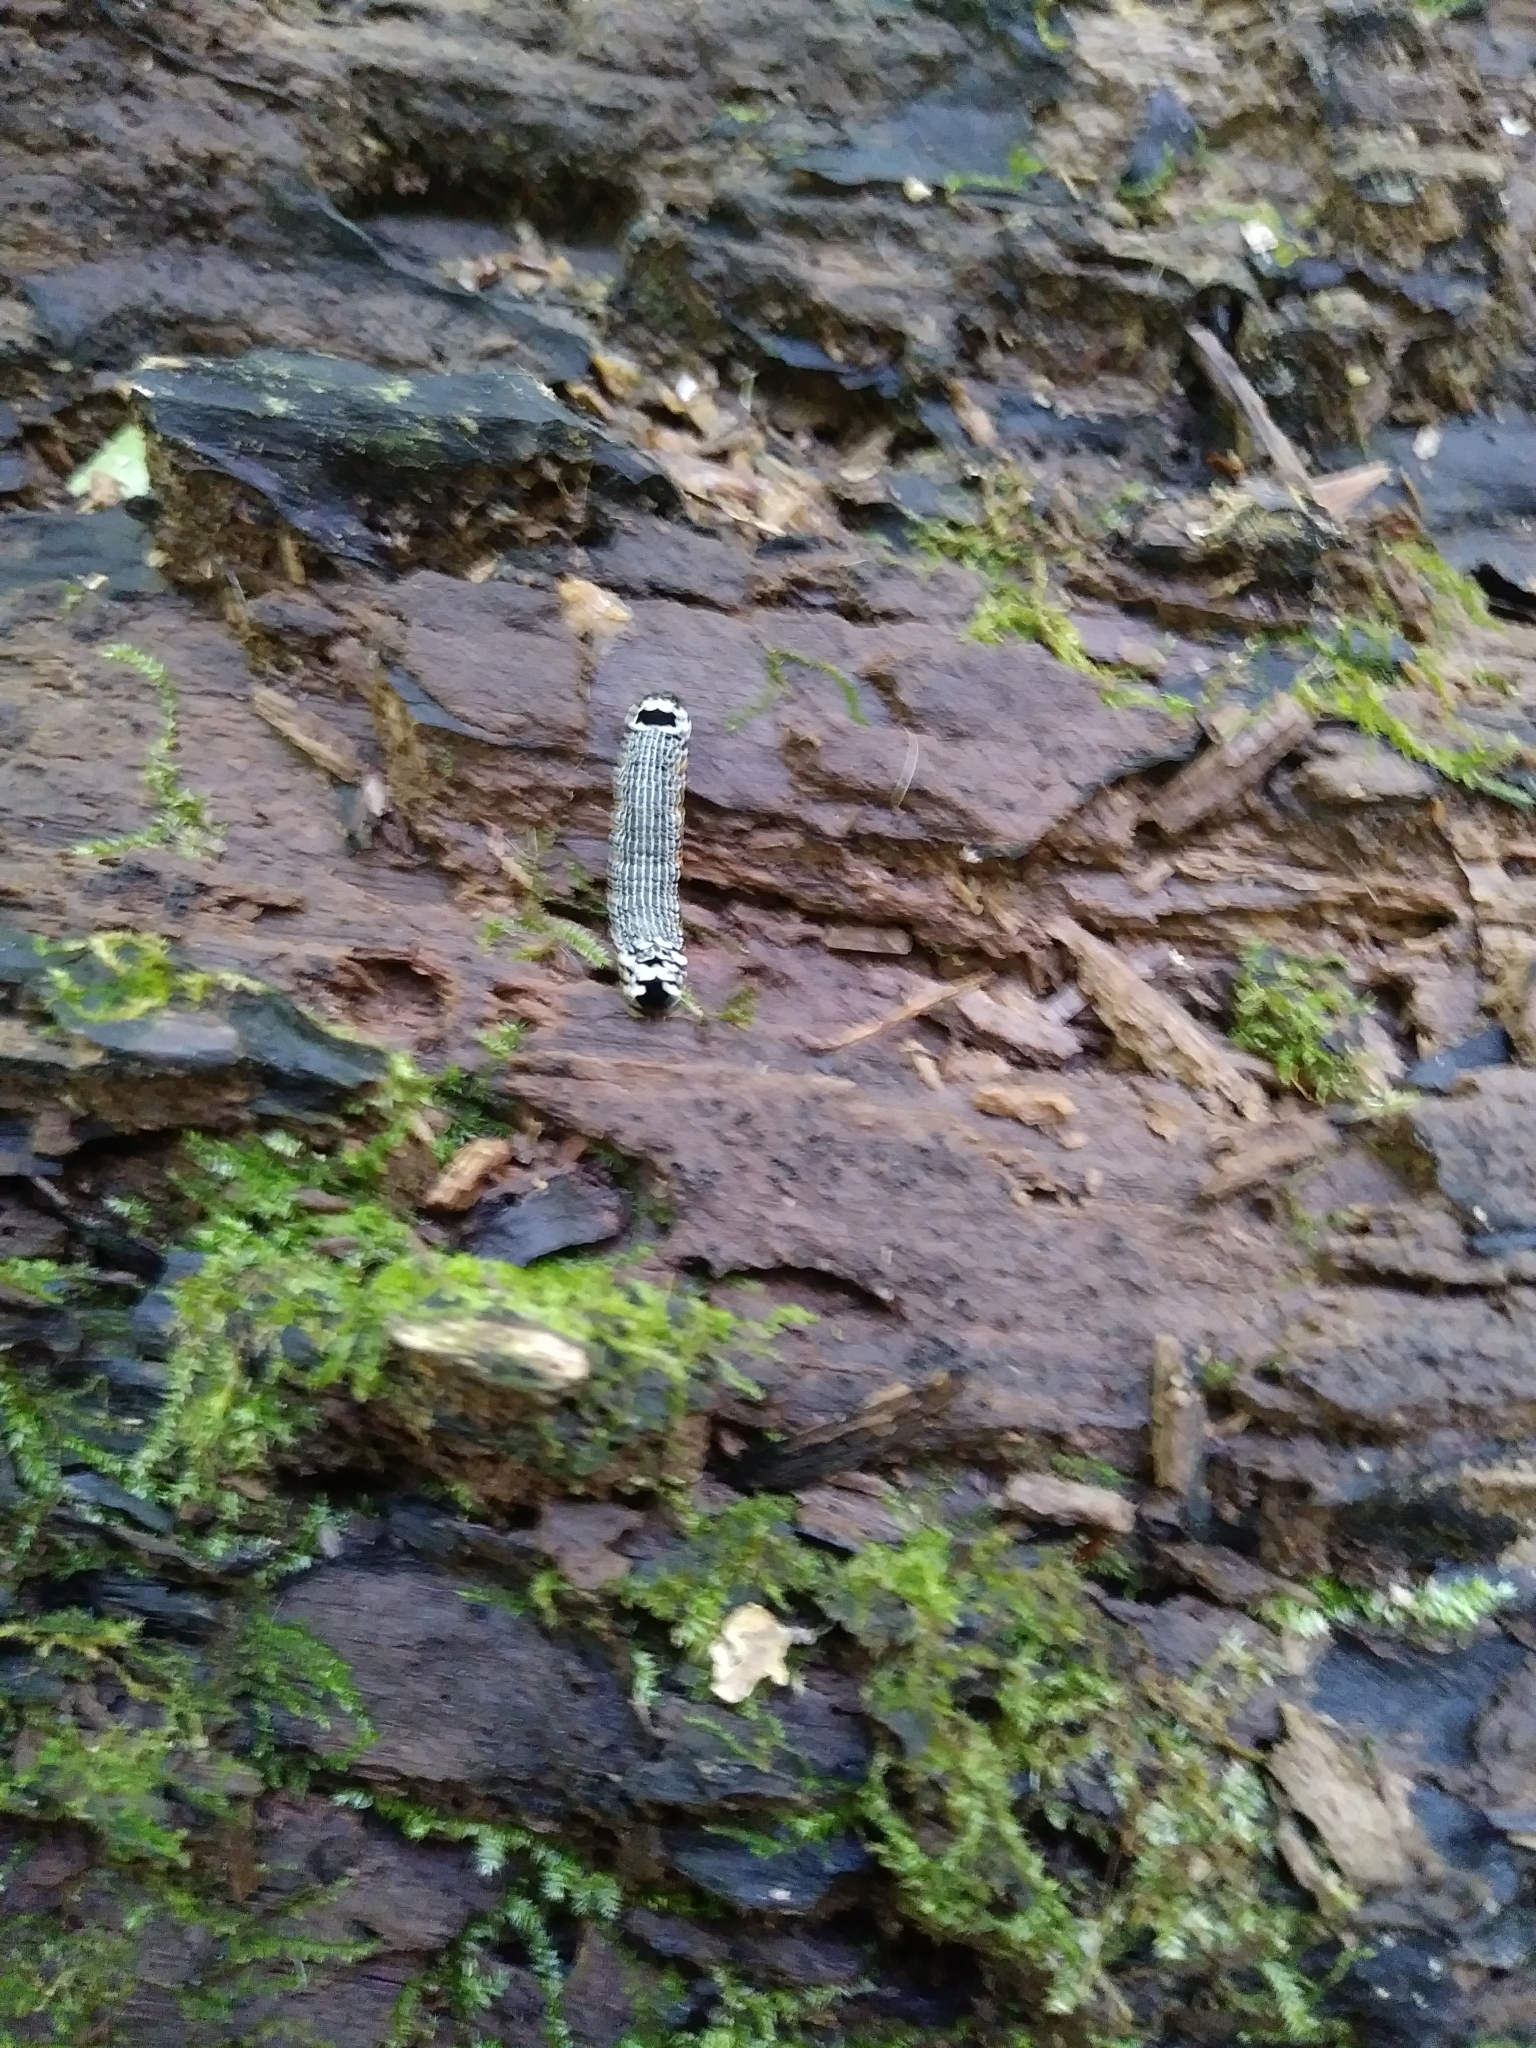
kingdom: Animalia
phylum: Arthropoda
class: Insecta
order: Lepidoptera
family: Noctuidae
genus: Phosphila
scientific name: Phosphila turbulenta
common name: Turbulent phosphila moth
